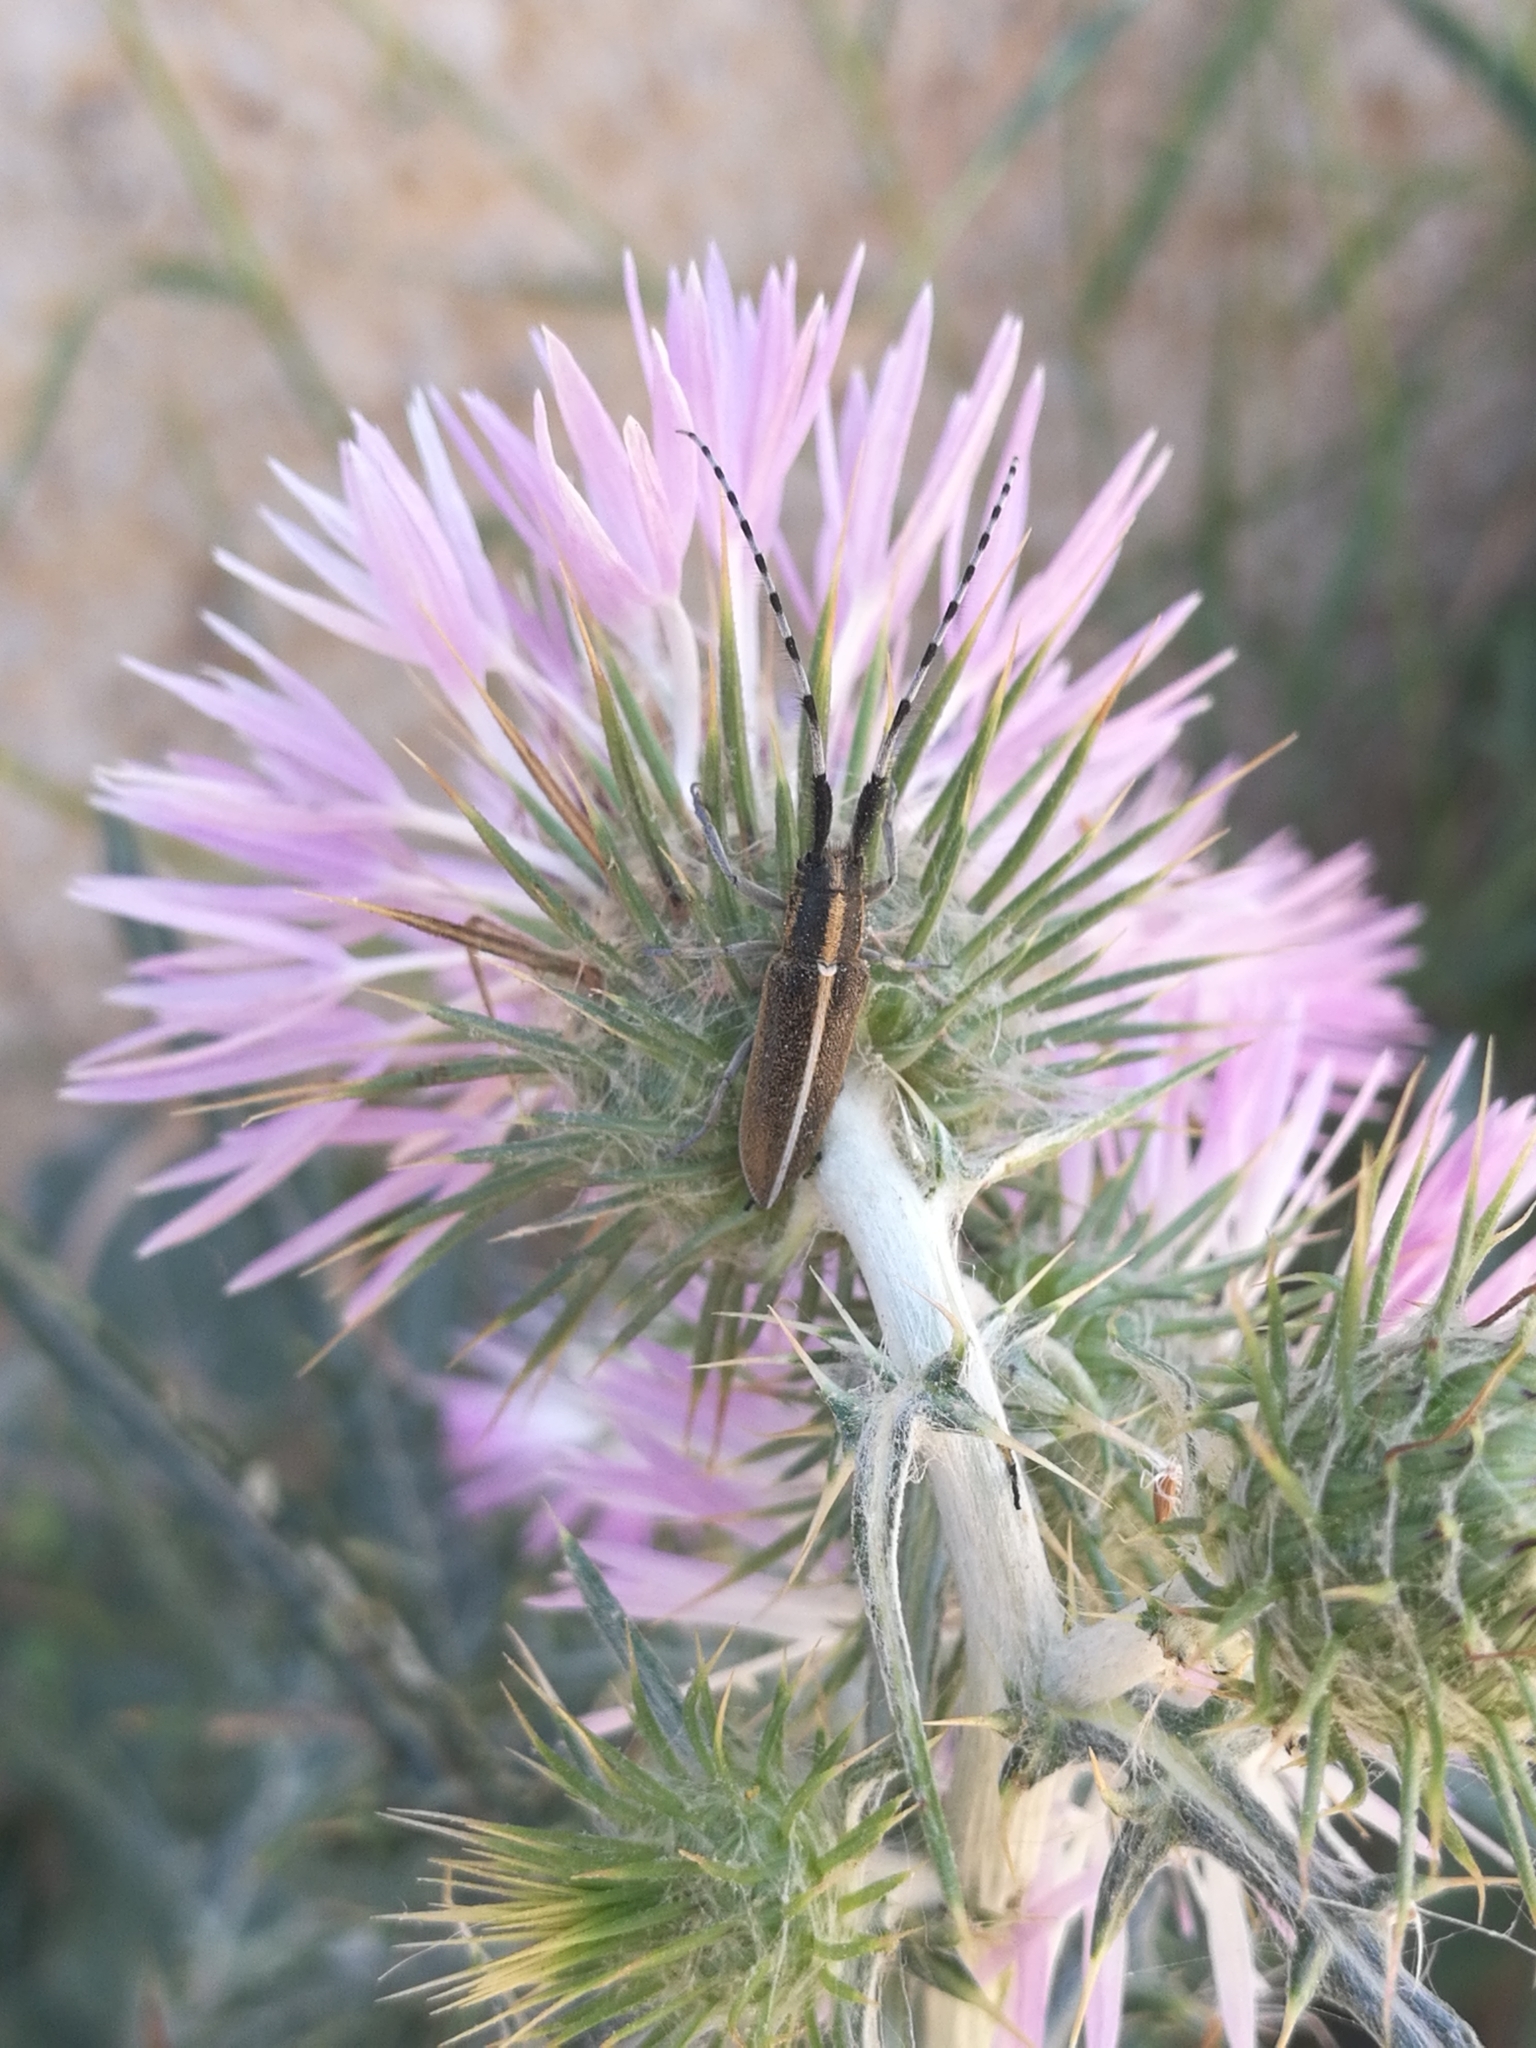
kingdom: Animalia
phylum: Arthropoda
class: Insecta
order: Coleoptera
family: Cerambycidae
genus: Agapanthia
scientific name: Agapanthia suturalis
